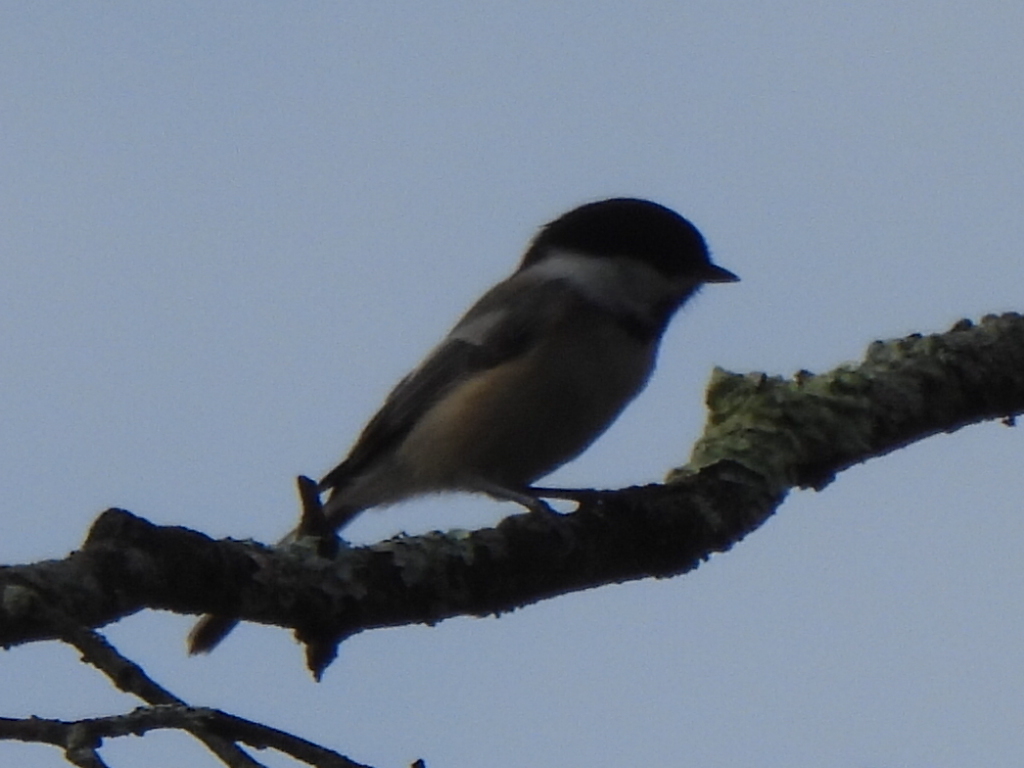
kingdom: Animalia
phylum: Chordata
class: Aves
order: Passeriformes
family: Paridae
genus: Poecile
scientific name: Poecile atricapillus
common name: Black-capped chickadee
